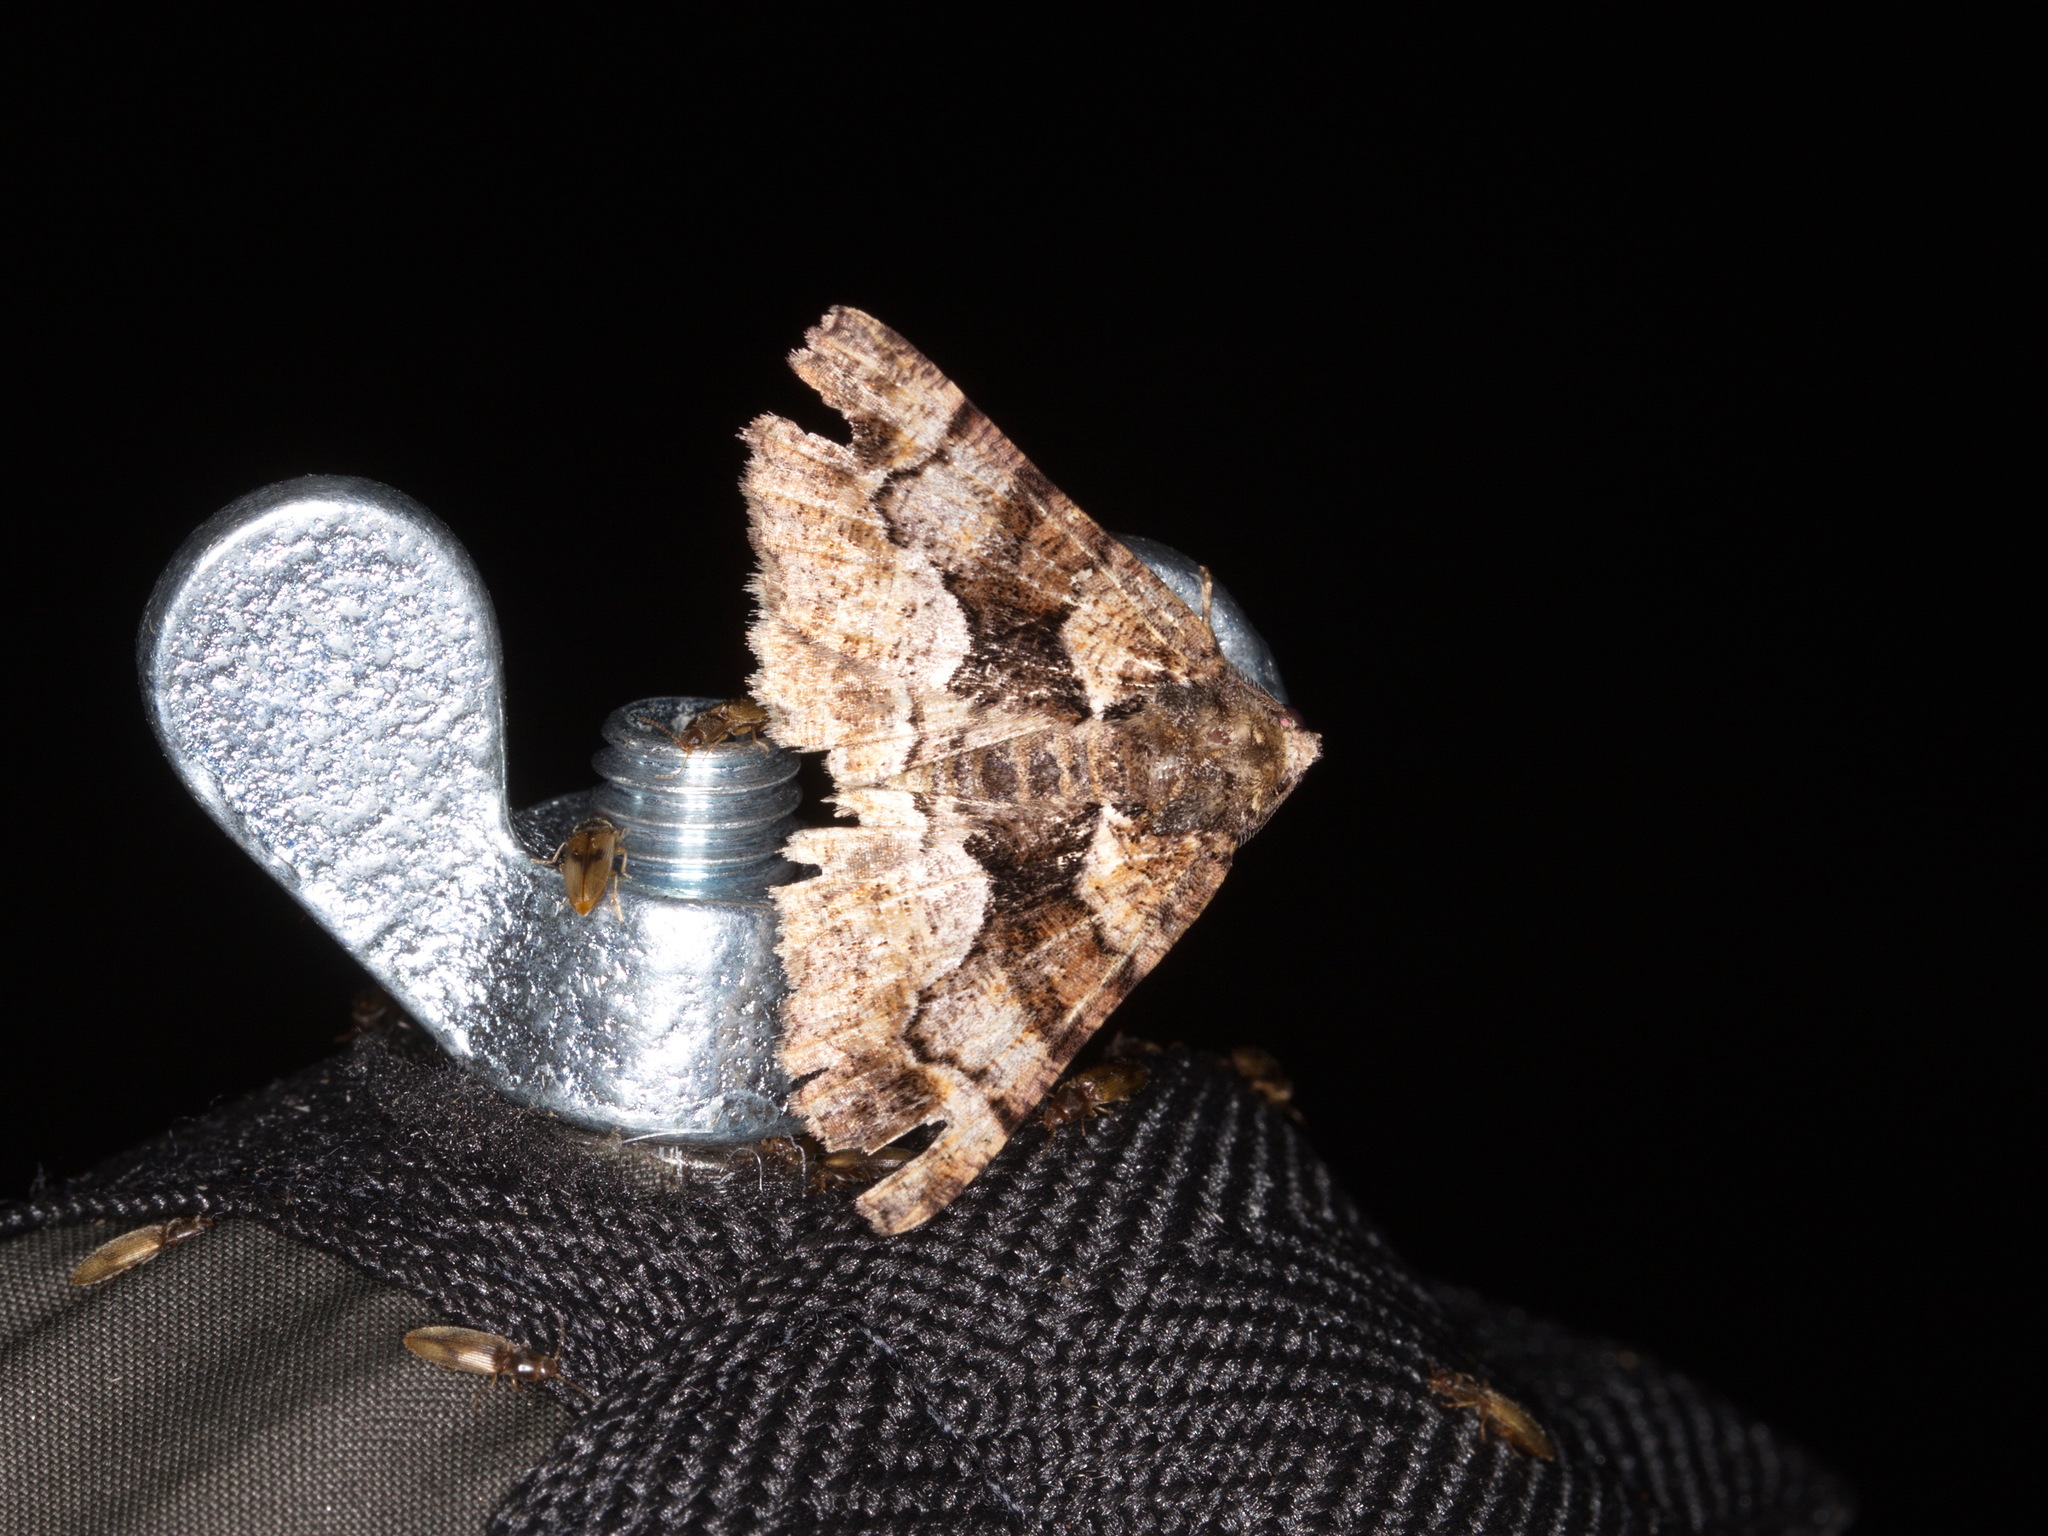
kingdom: Animalia
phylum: Arthropoda
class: Insecta
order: Lepidoptera
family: Geometridae
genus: Gastrina
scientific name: Gastrina cristaria
